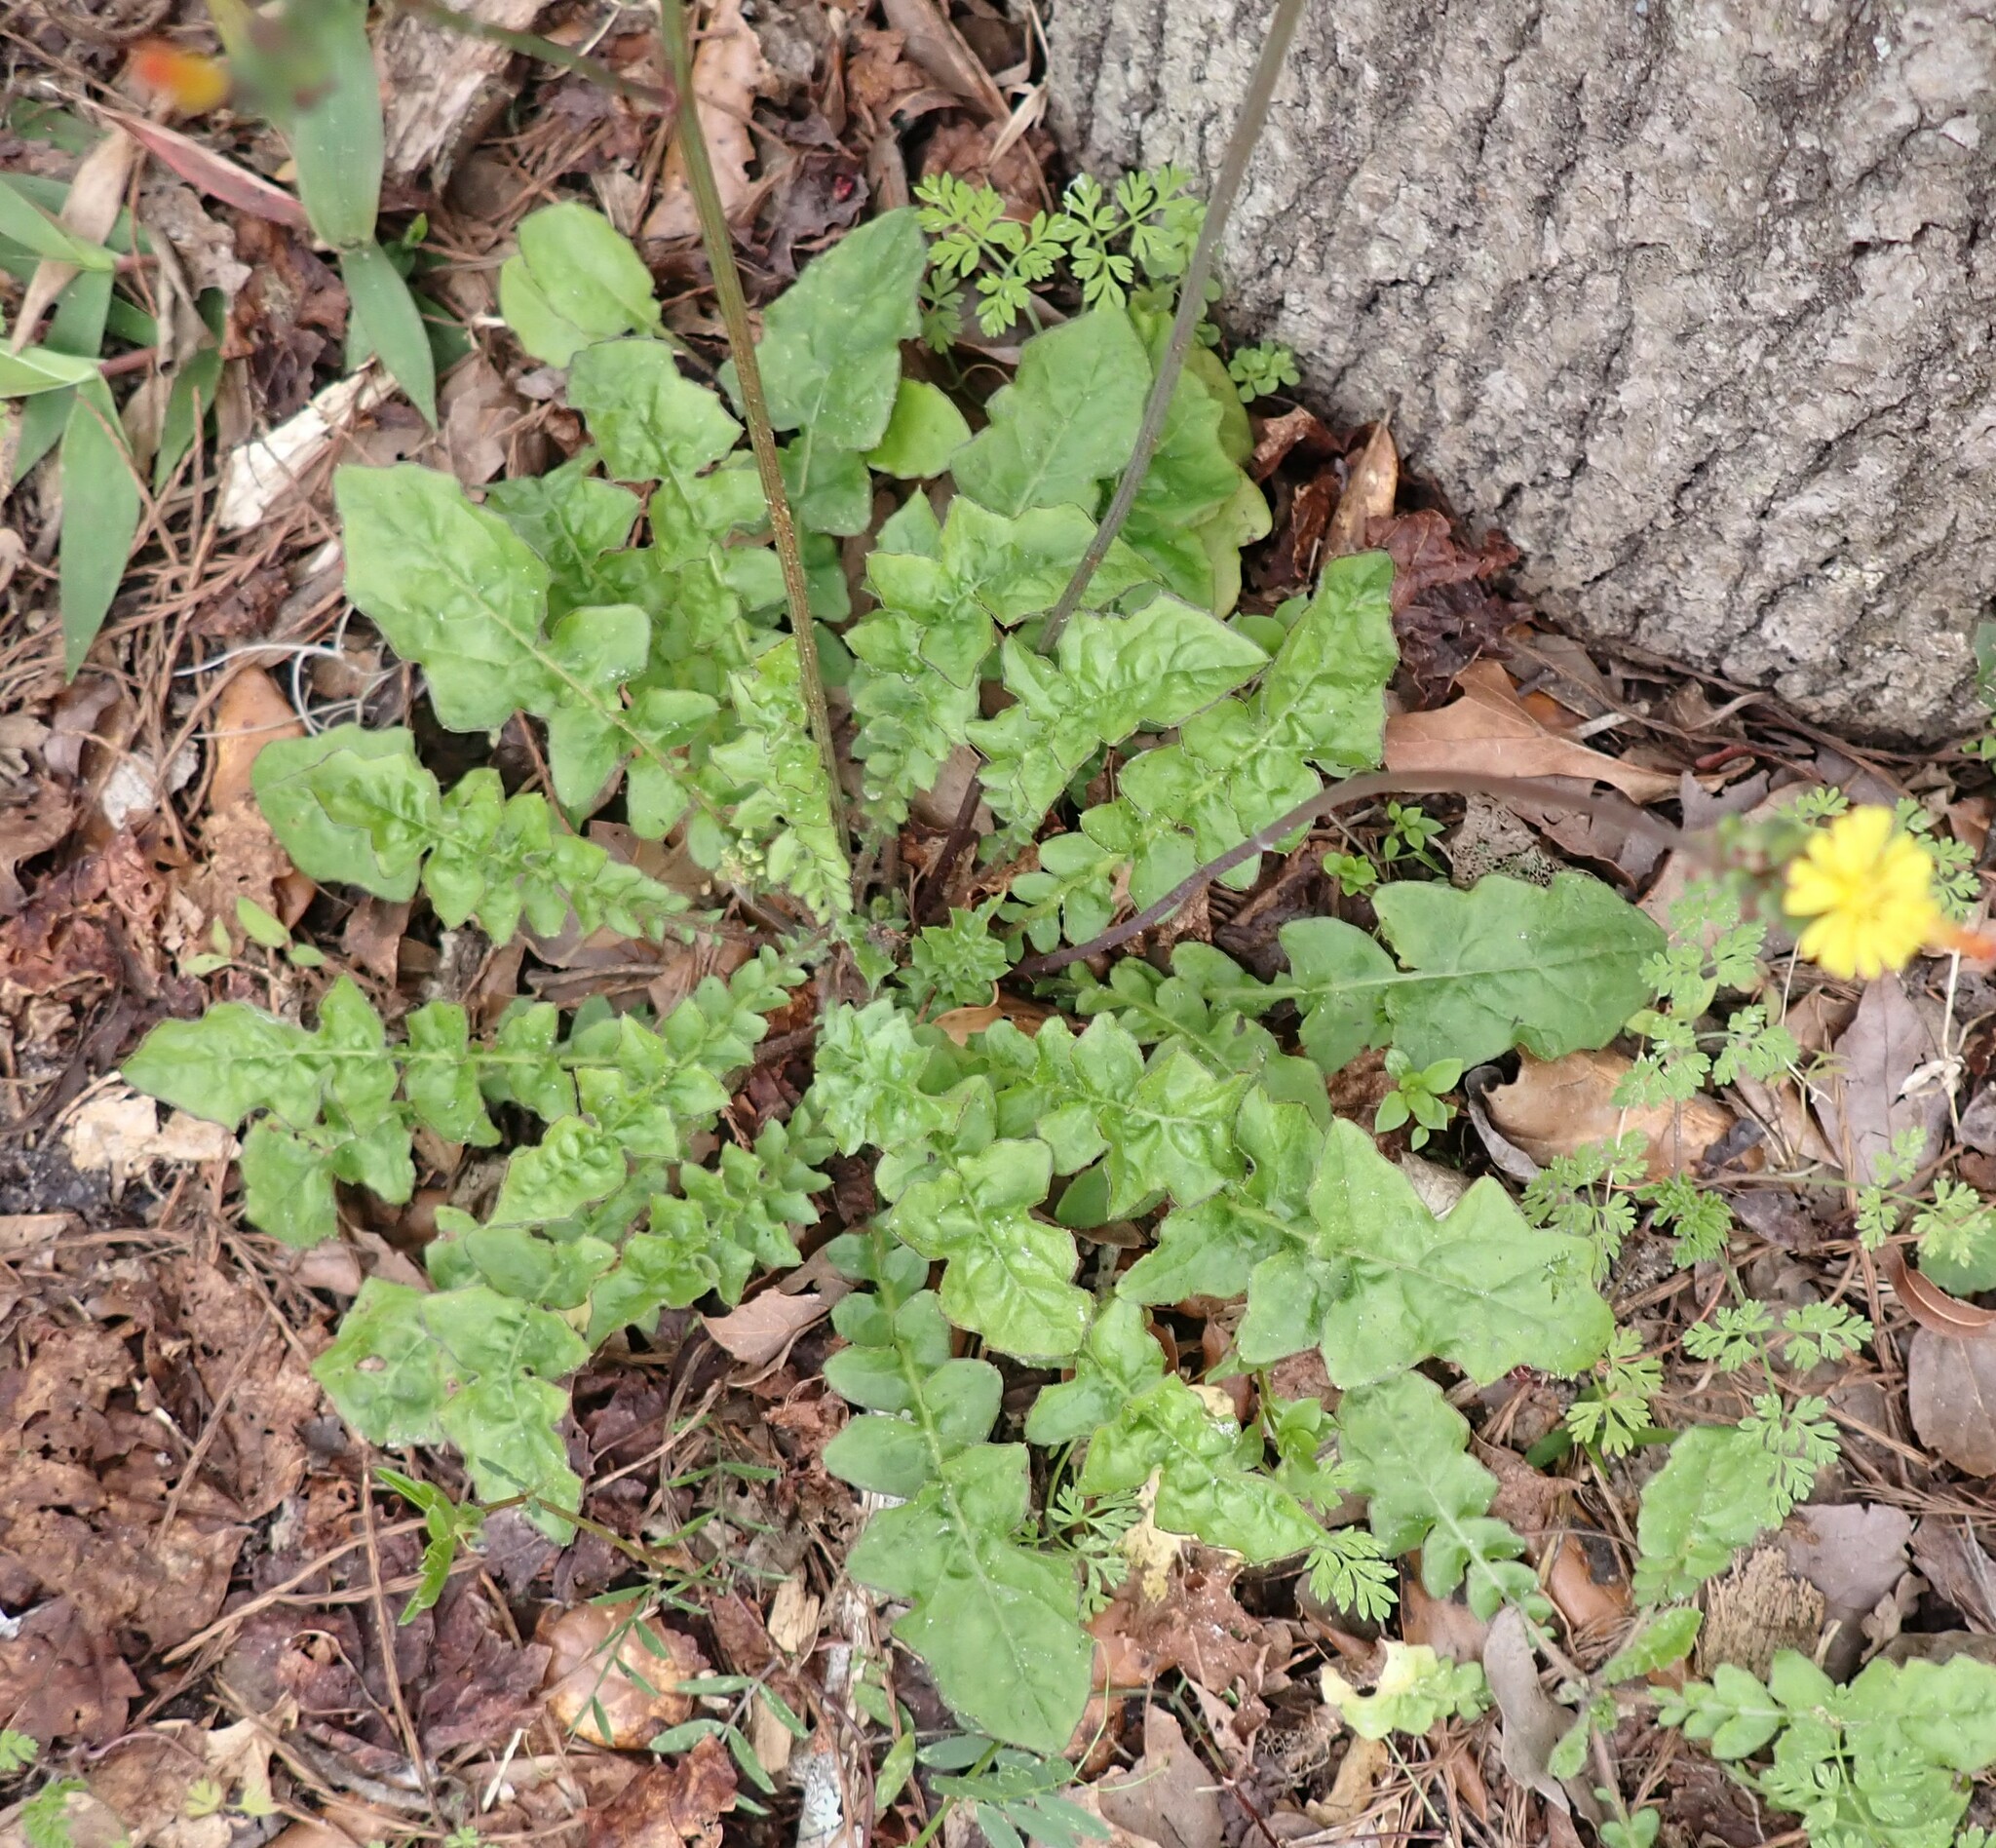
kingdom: Plantae
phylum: Tracheophyta
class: Magnoliopsida
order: Asterales
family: Asteraceae
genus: Youngia
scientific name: Youngia japonica
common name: Oriental false hawksbeard
